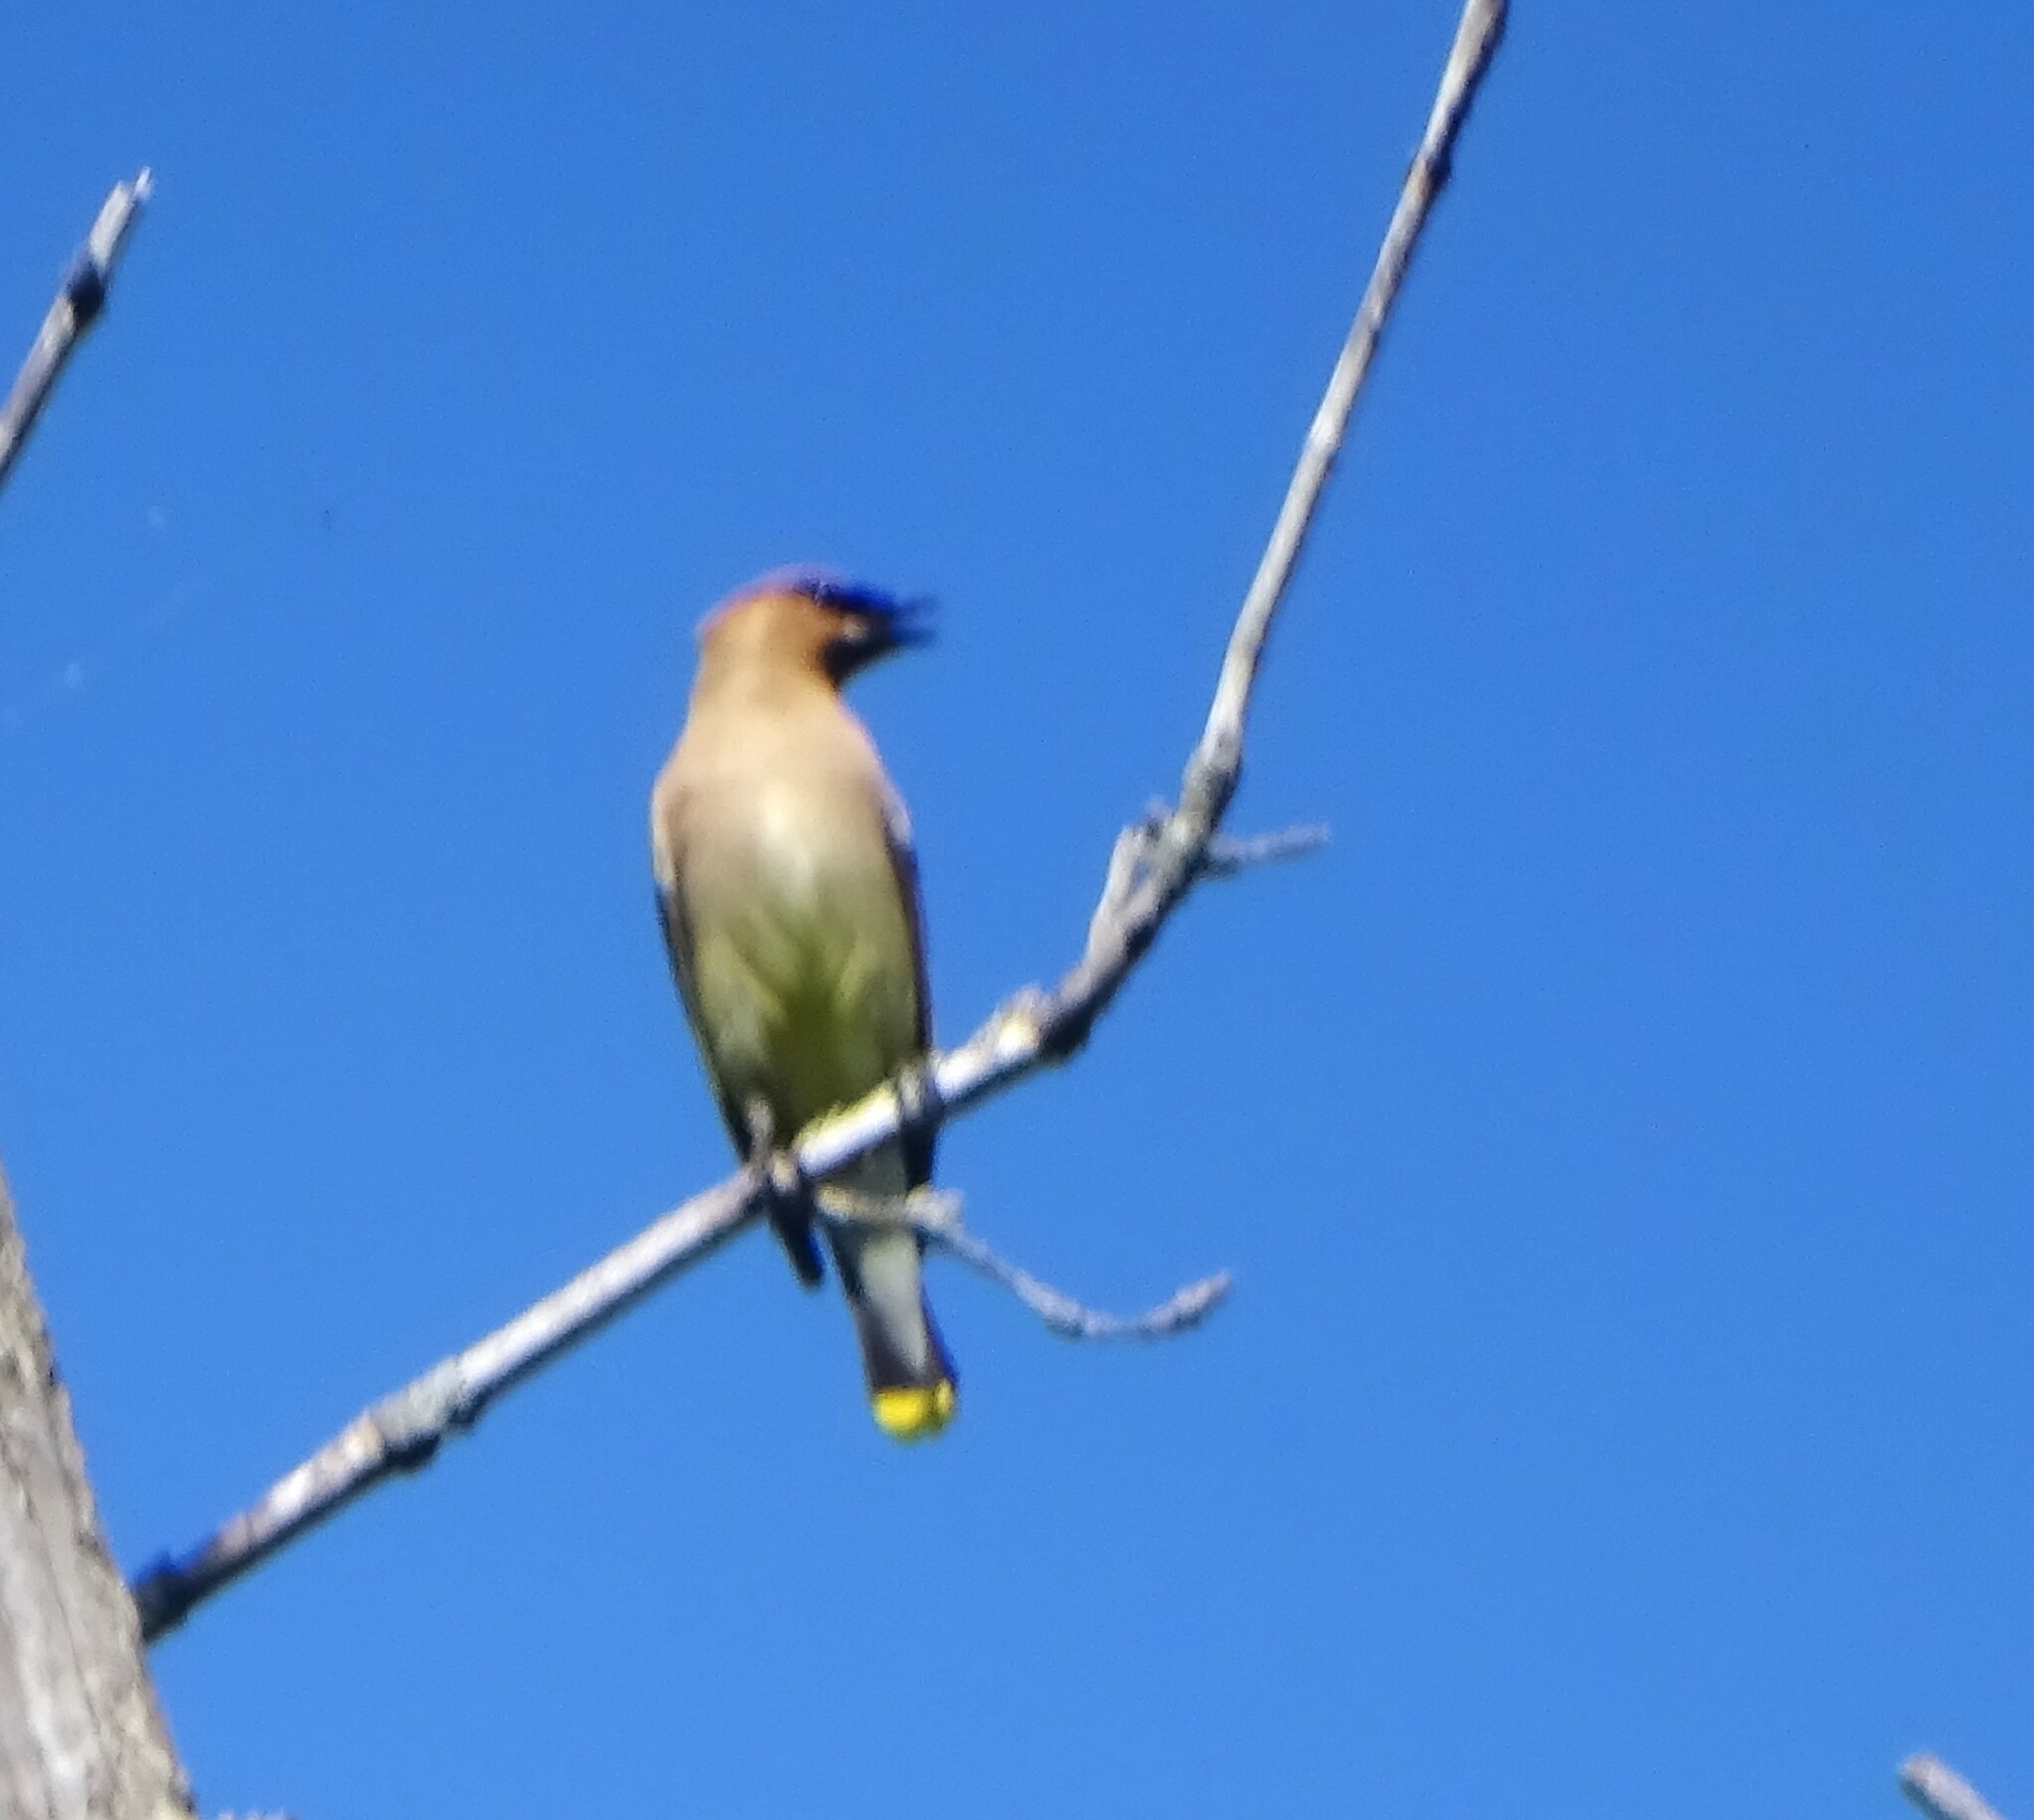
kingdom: Animalia
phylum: Chordata
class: Aves
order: Passeriformes
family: Bombycillidae
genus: Bombycilla
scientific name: Bombycilla cedrorum
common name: Cedar waxwing
